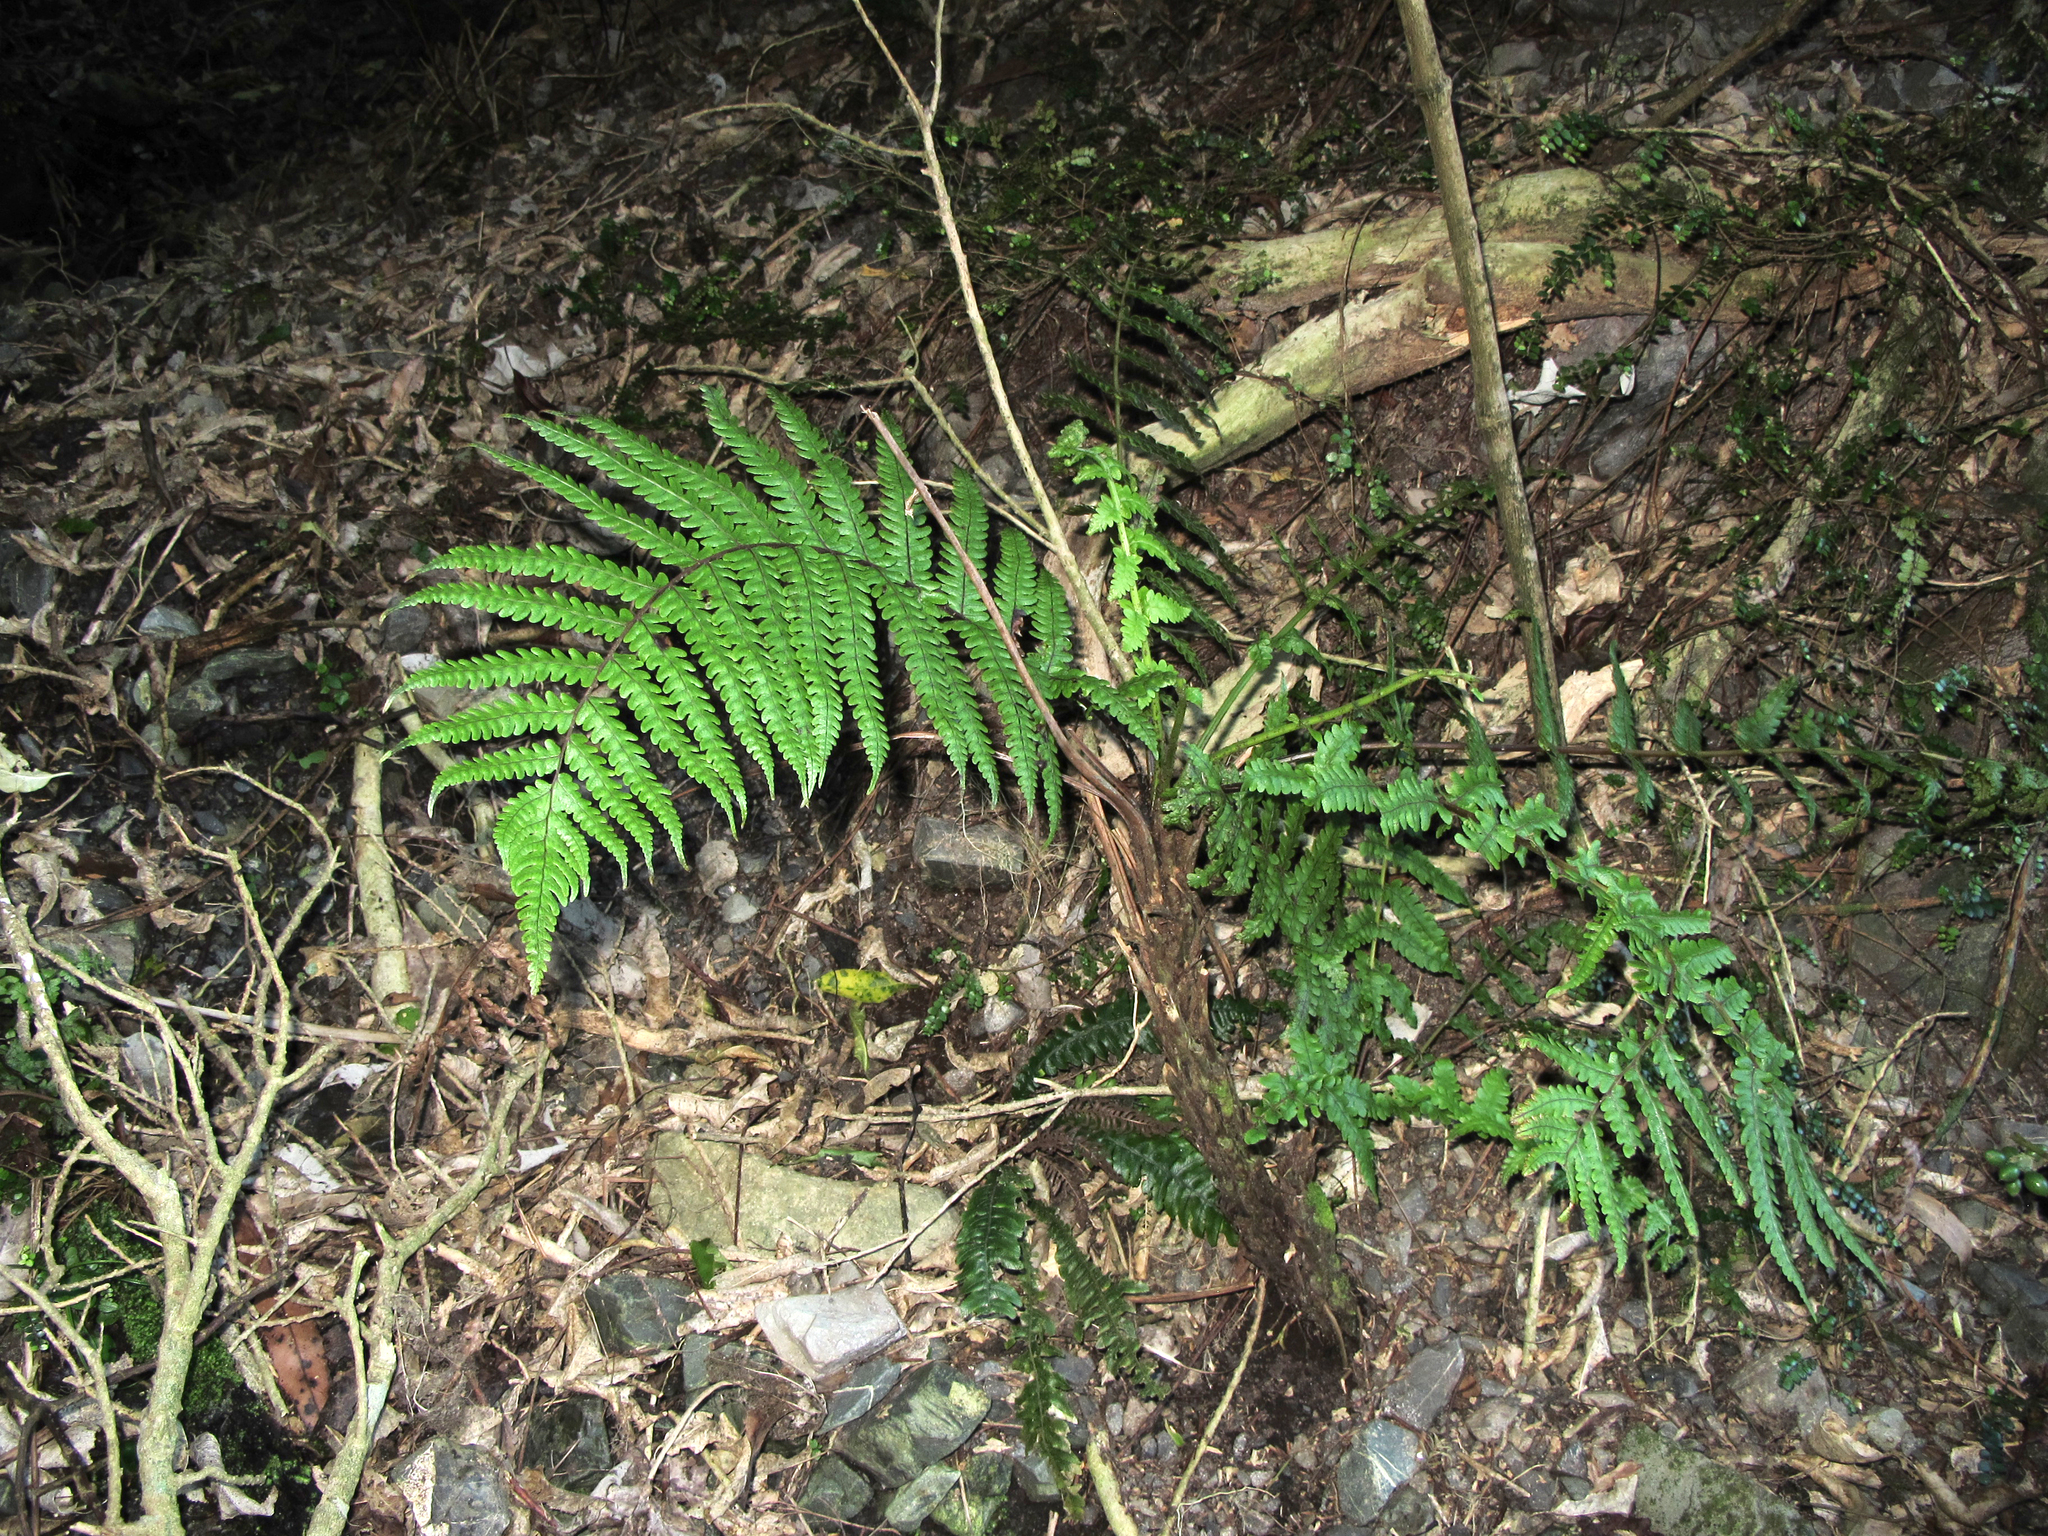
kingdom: Plantae
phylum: Tracheophyta
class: Polypodiopsida
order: Polypodiales
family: Thelypteridaceae
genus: Pakau
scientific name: Pakau pennigera
